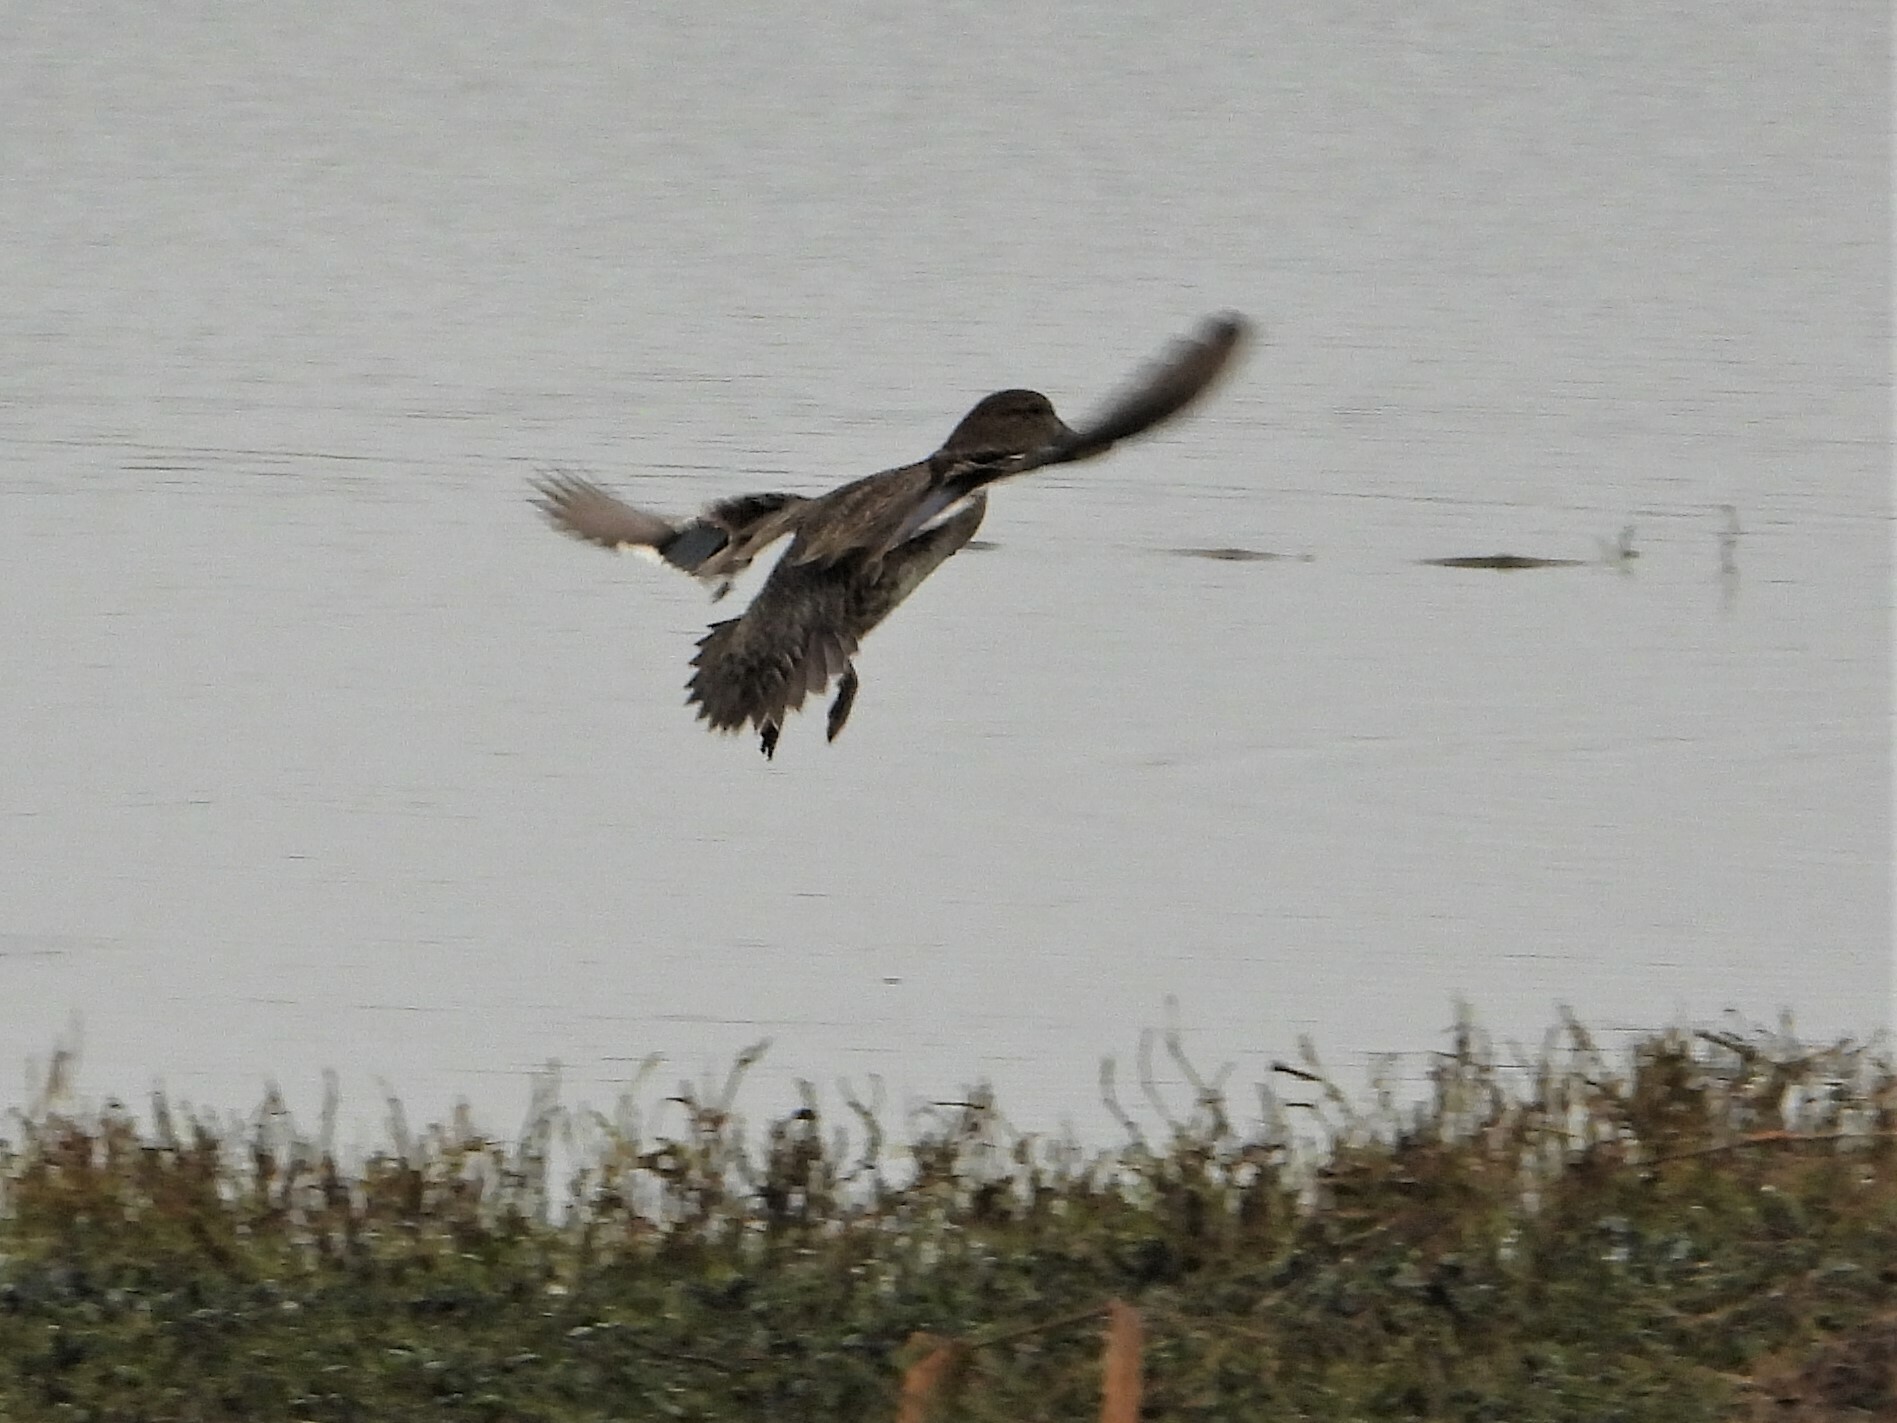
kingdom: Animalia
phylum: Chordata
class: Aves
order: Anseriformes
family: Anatidae
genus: Anas
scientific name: Anas crecca
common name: Eurasian teal
